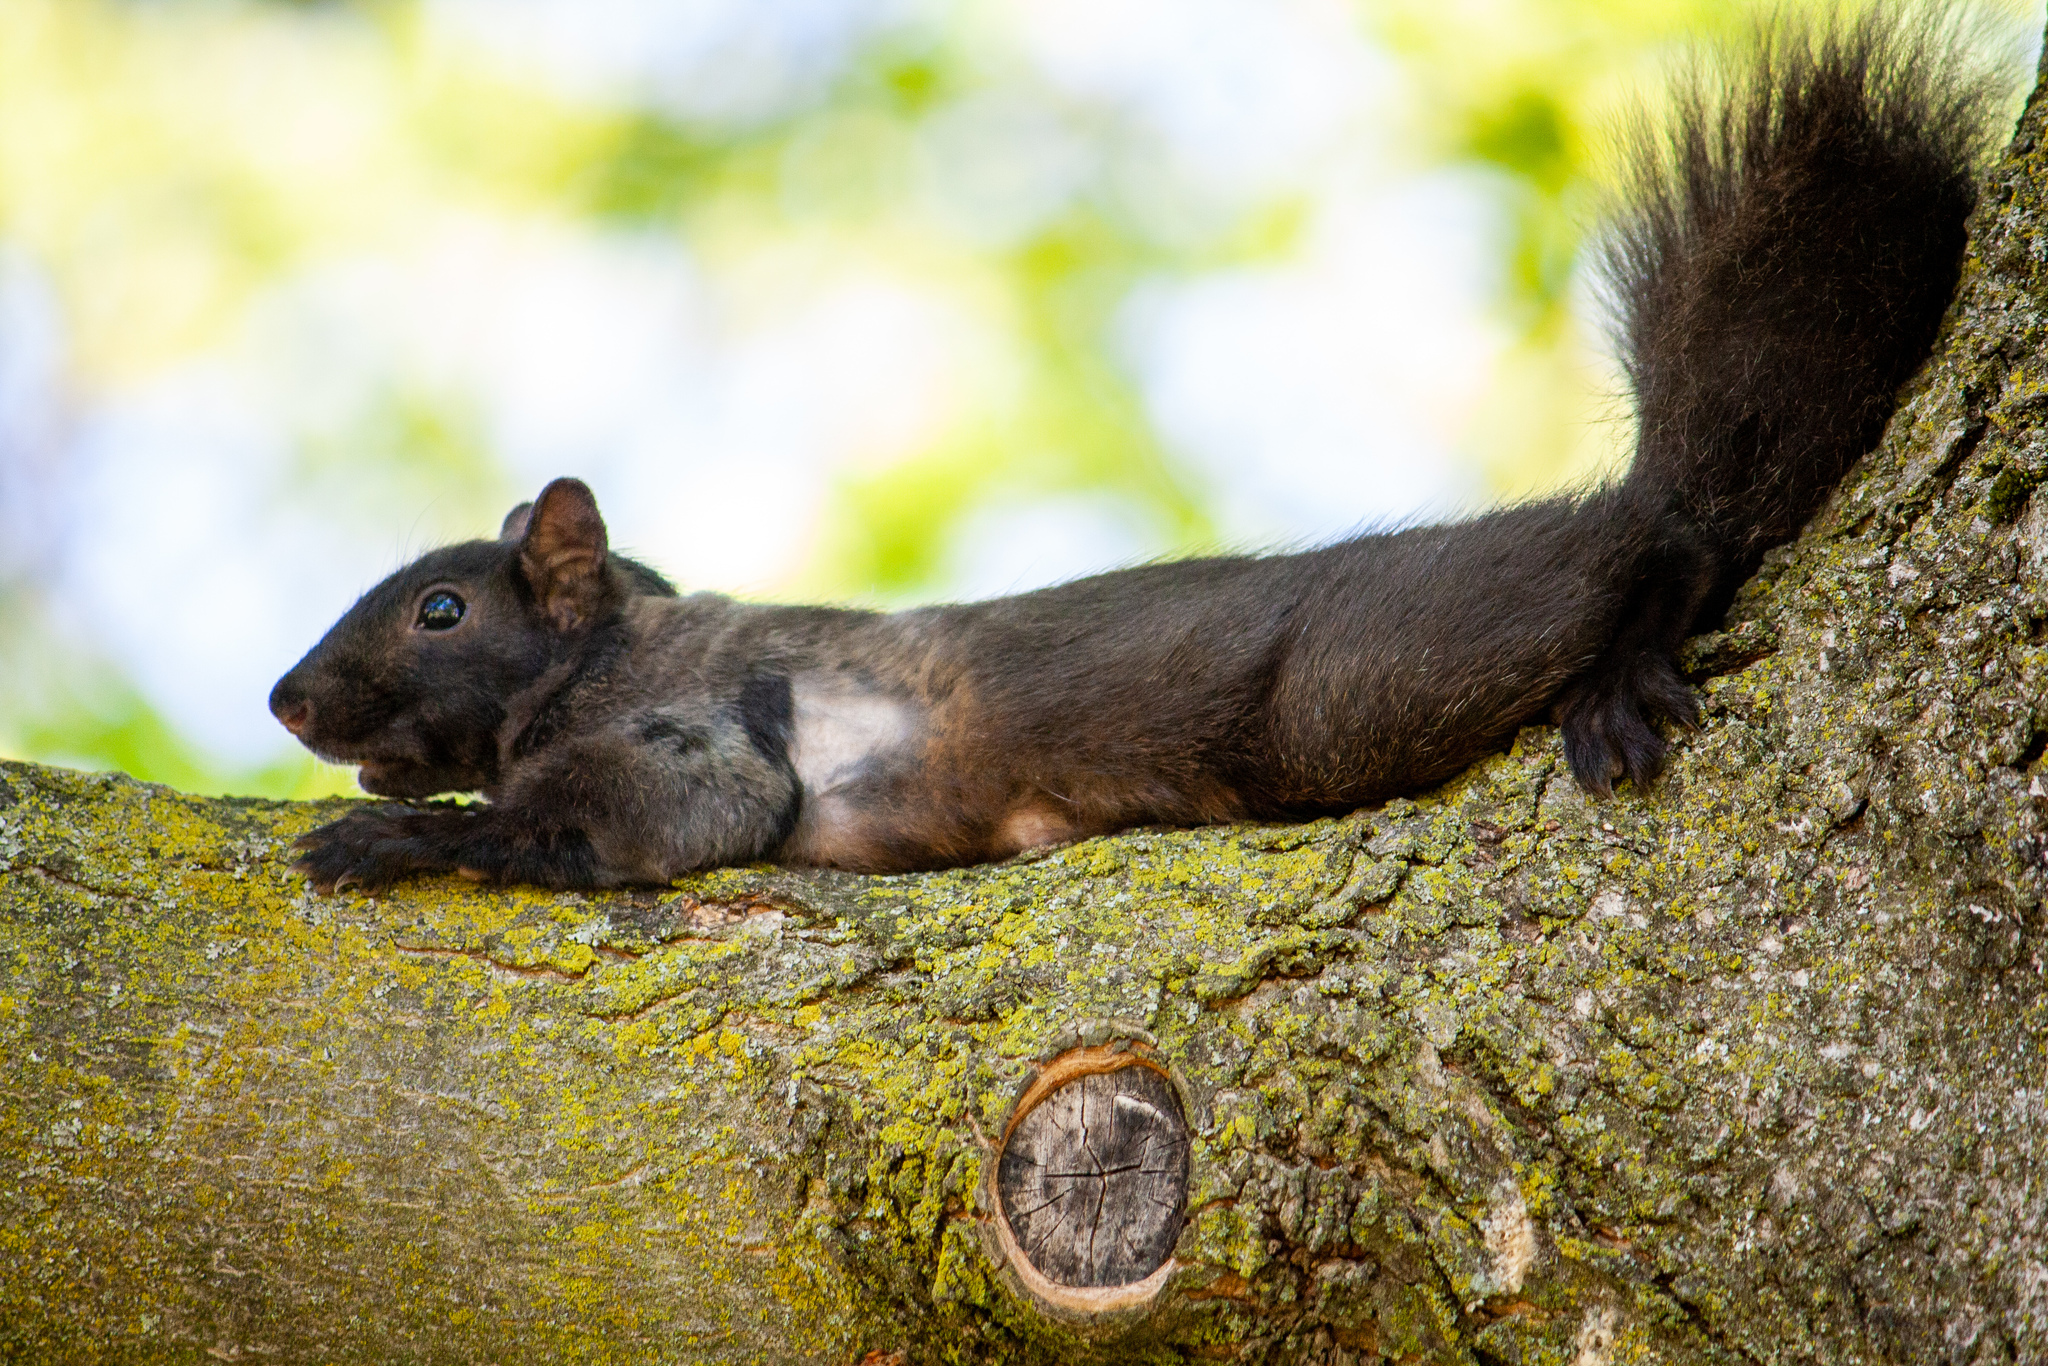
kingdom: Animalia
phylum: Chordata
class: Mammalia
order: Rodentia
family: Sciuridae
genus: Sciurus
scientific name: Sciurus carolinensis
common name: Eastern gray squirrel
